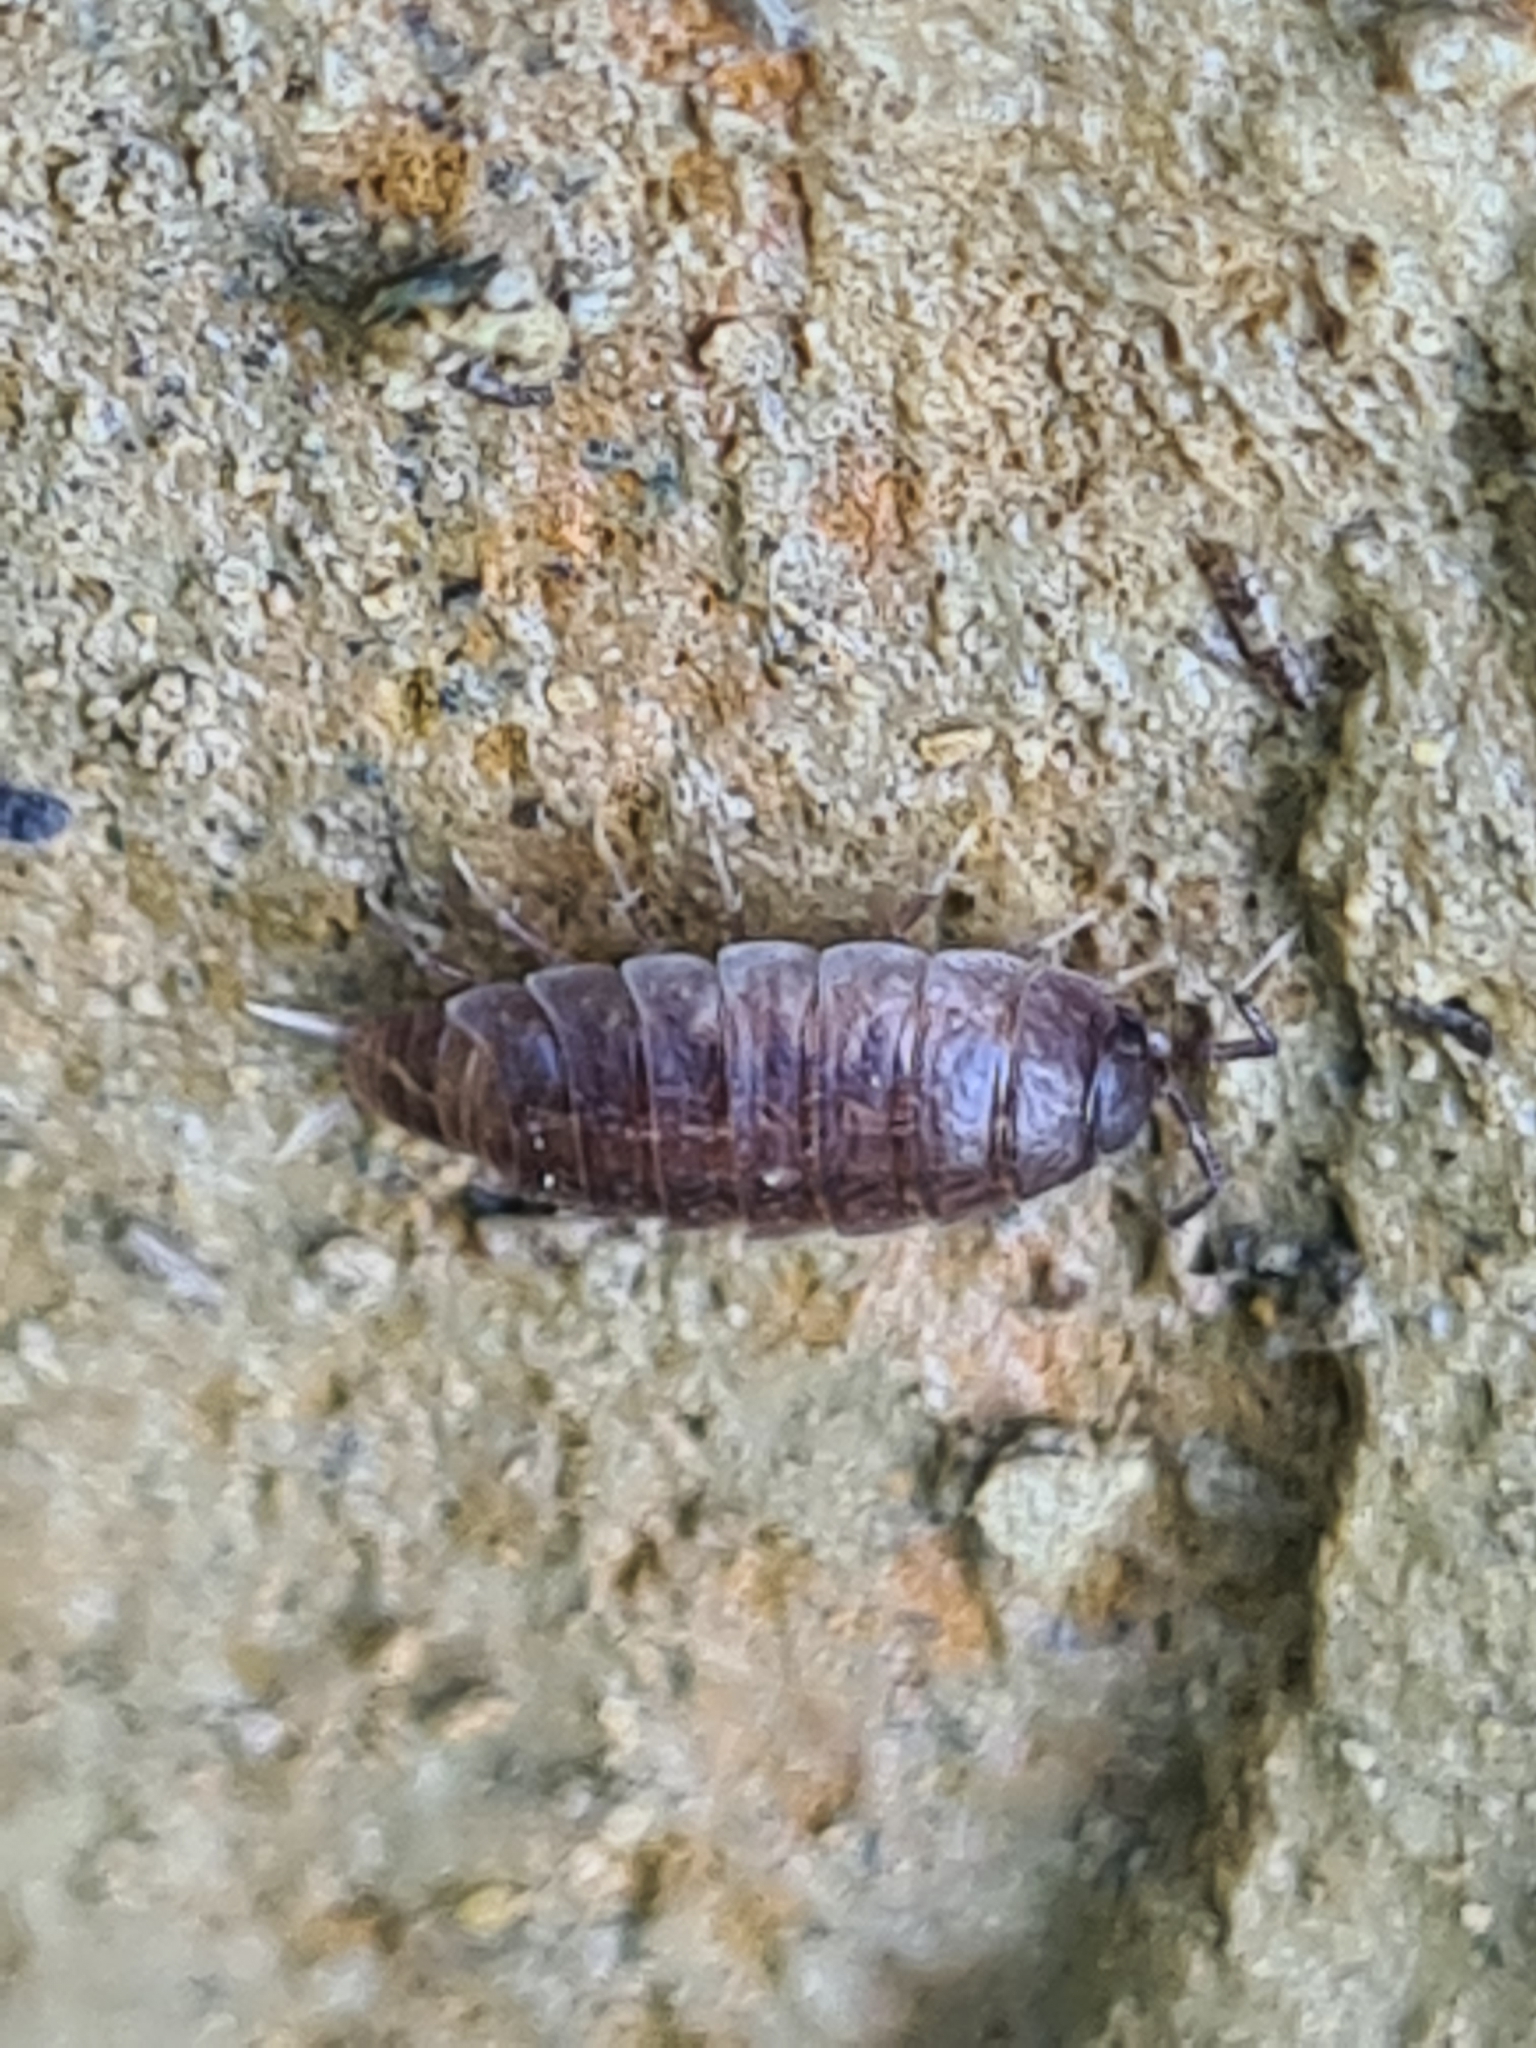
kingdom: Animalia
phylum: Arthropoda
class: Malacostraca
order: Isopoda
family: Trichoniscidae
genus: Hyloniscus
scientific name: Hyloniscus riparius
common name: Isopod
